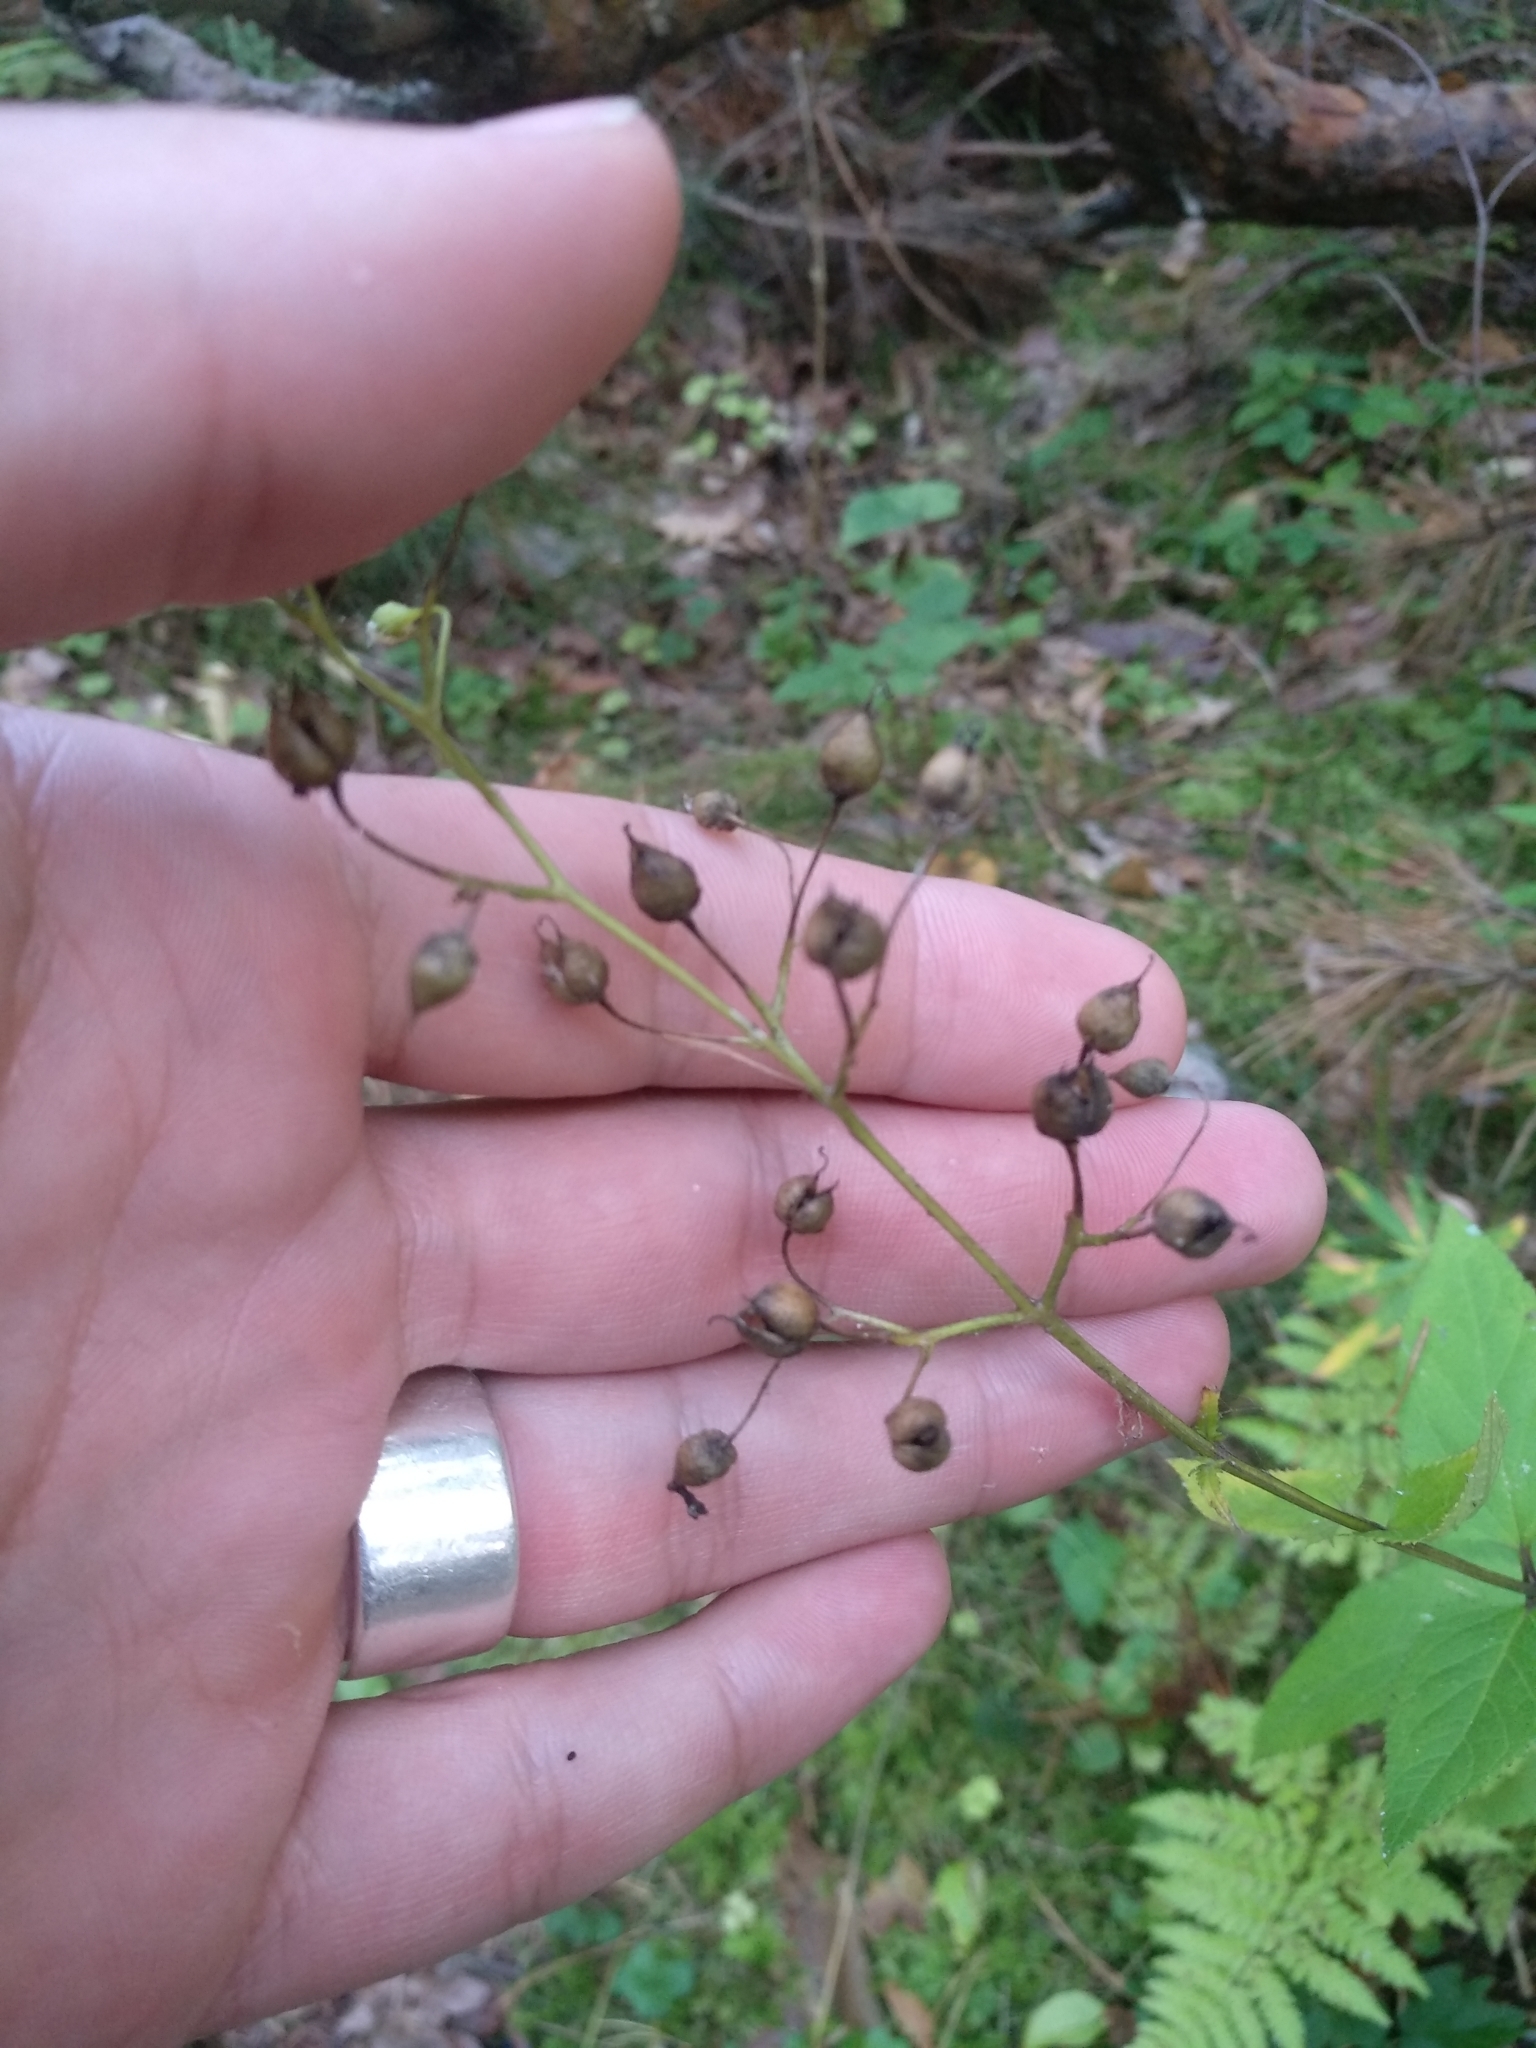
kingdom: Plantae
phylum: Tracheophyta
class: Magnoliopsida
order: Lamiales
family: Scrophulariaceae
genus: Scrophularia
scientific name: Scrophularia nodosa
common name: Common figwort
